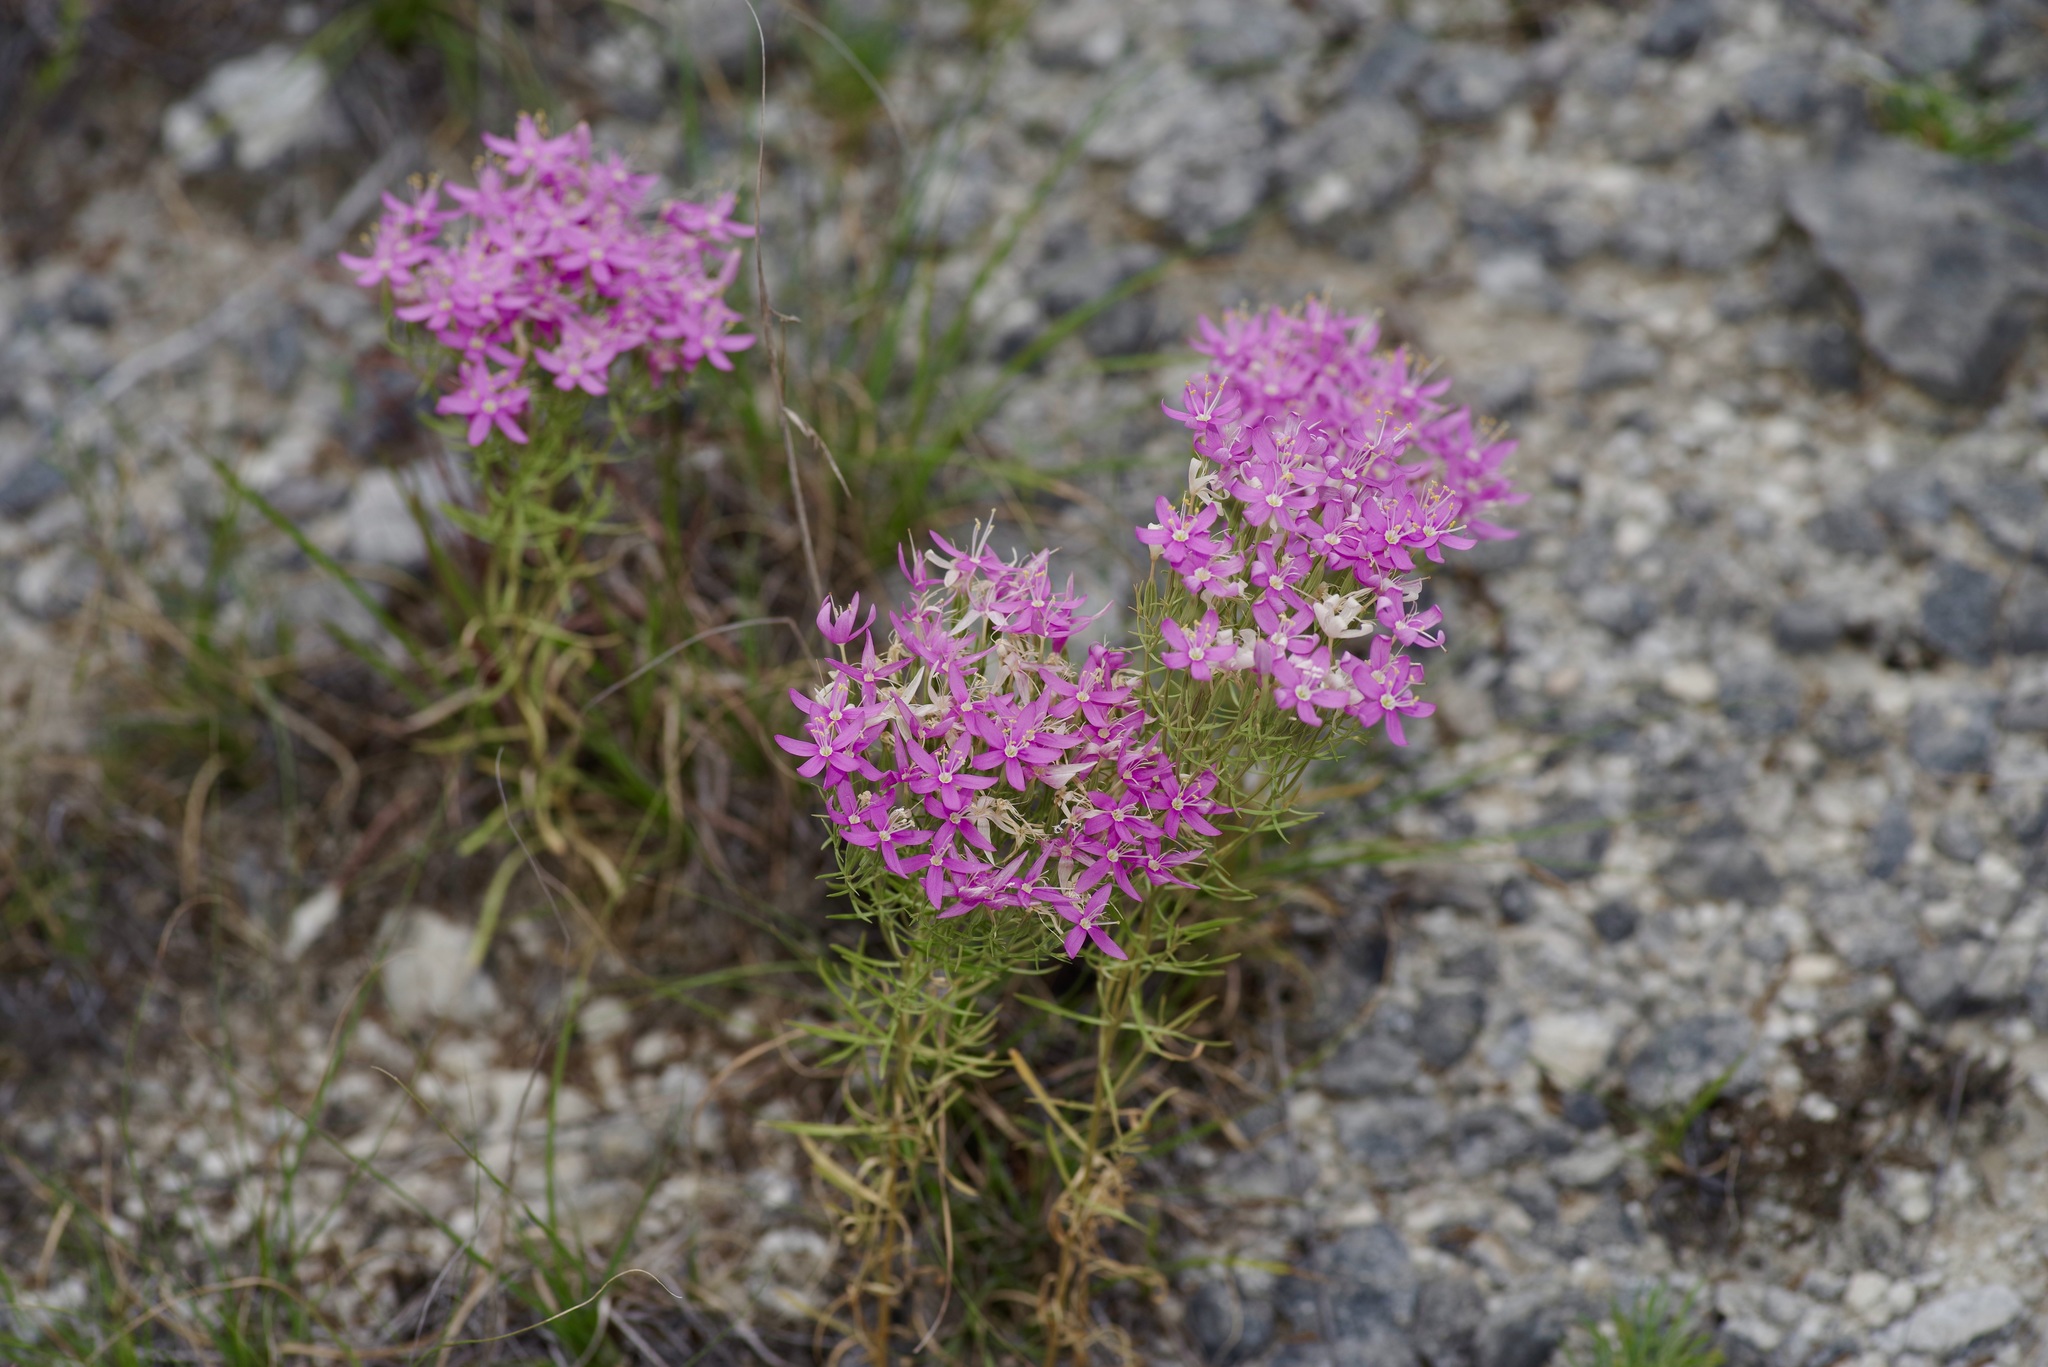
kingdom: Plantae
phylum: Tracheophyta
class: Magnoliopsida
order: Gentianales
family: Gentianaceae
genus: Zeltnera
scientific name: Zeltnera beyrichii
